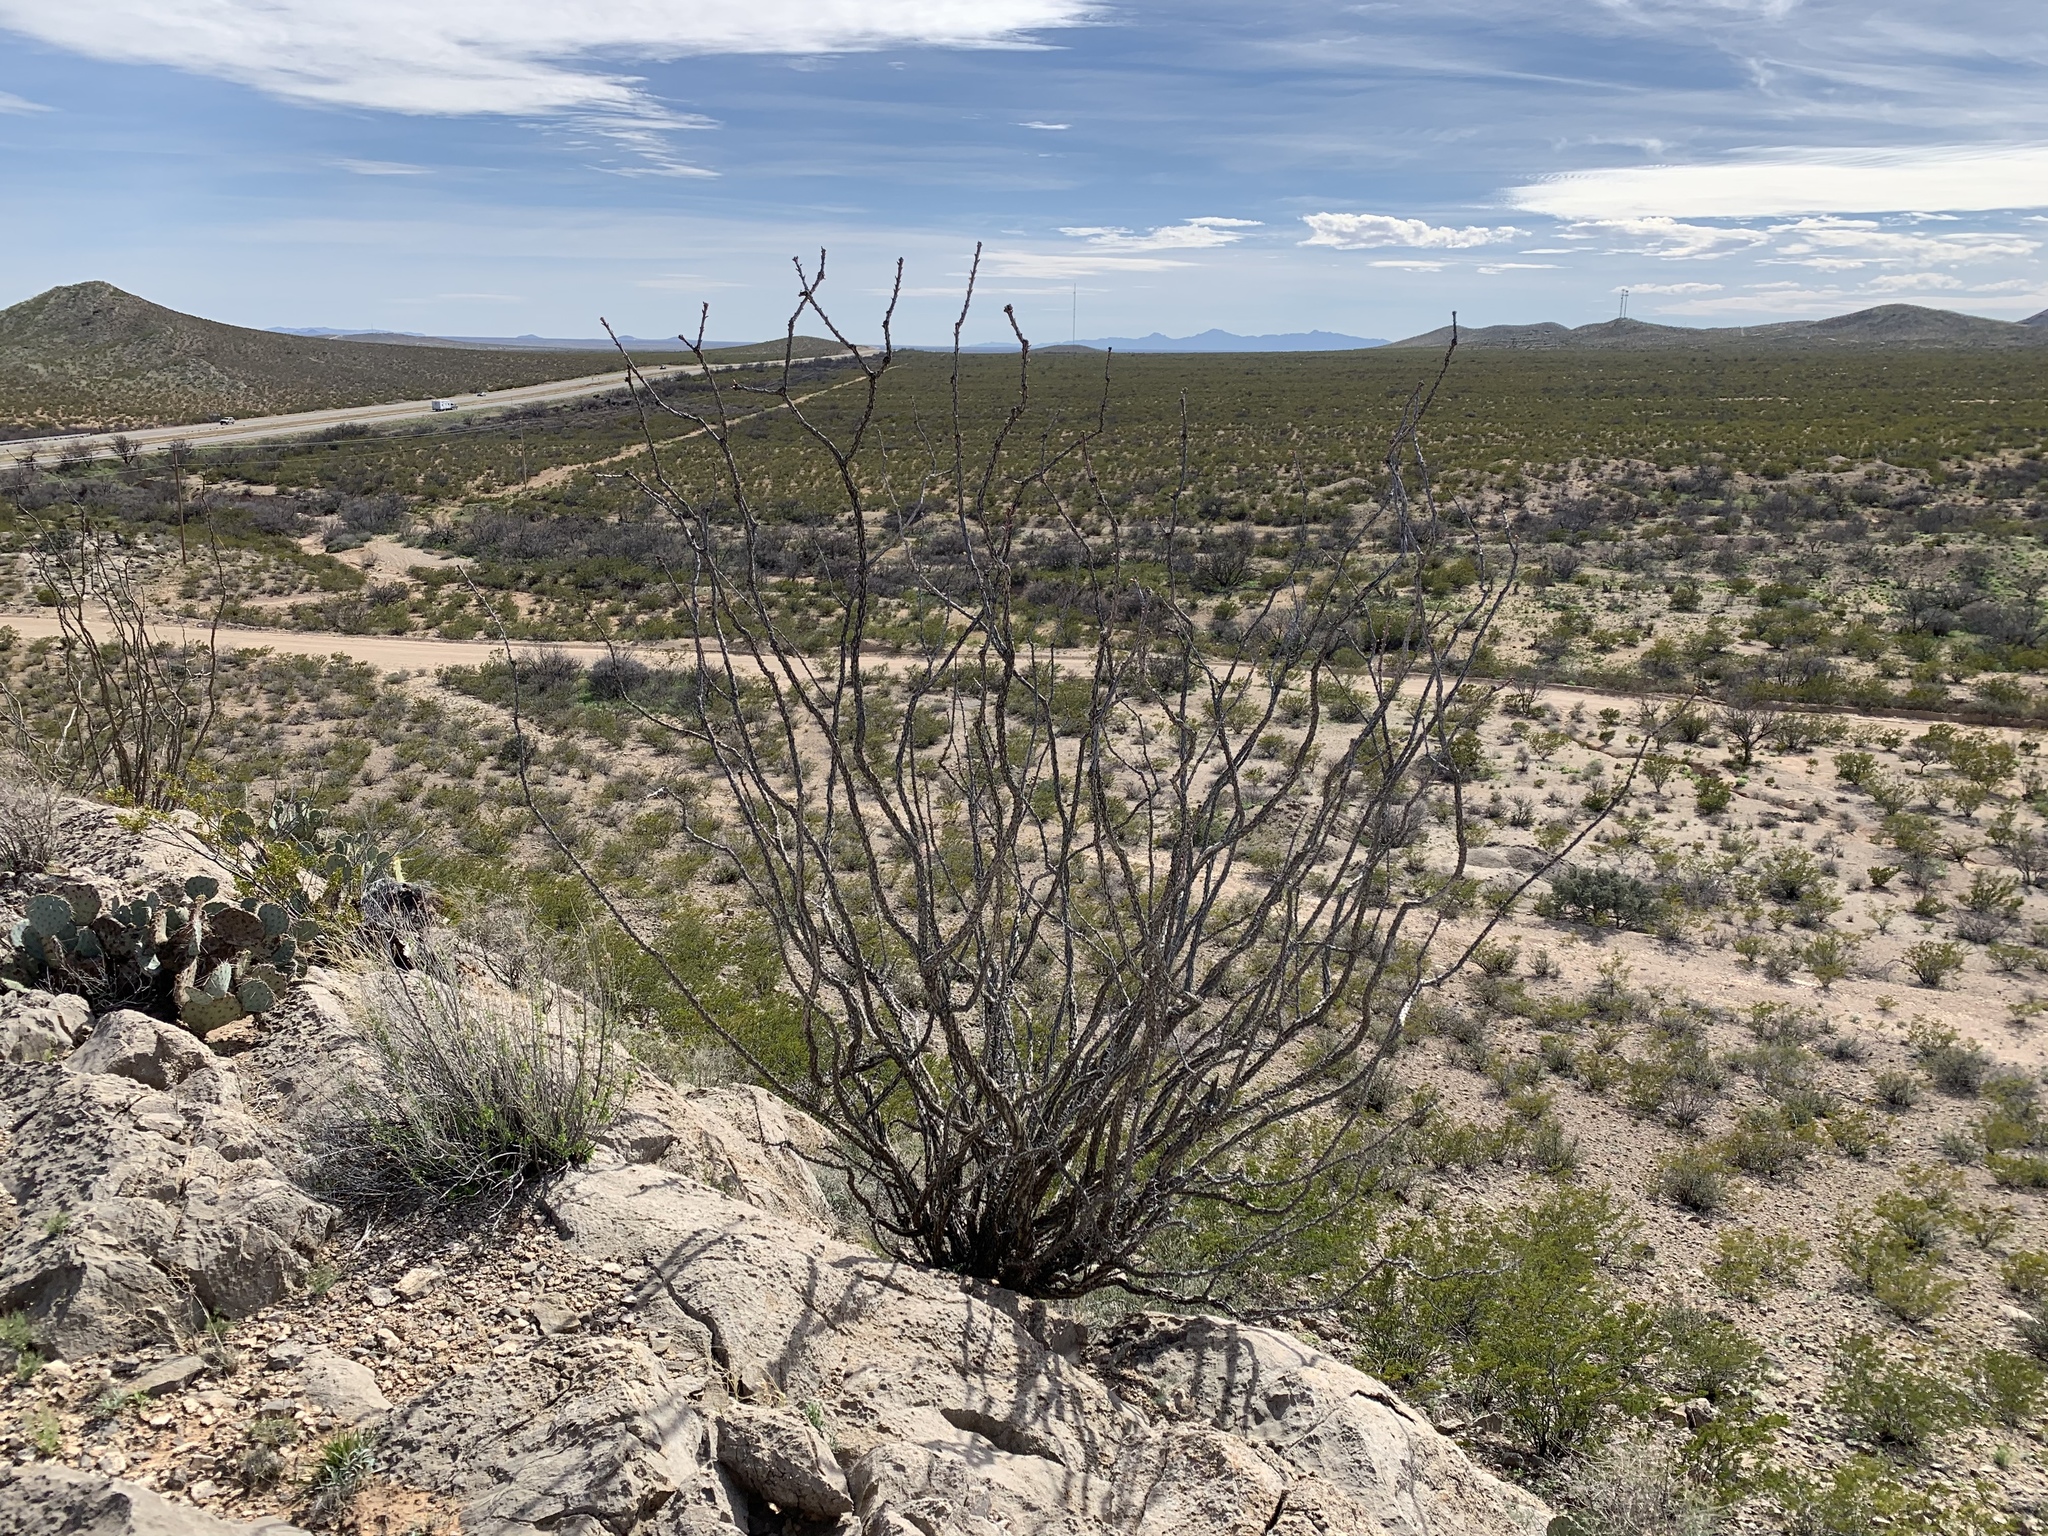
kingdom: Plantae
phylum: Tracheophyta
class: Magnoliopsida
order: Ericales
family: Fouquieriaceae
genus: Fouquieria
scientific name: Fouquieria splendens
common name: Vine-cactus
